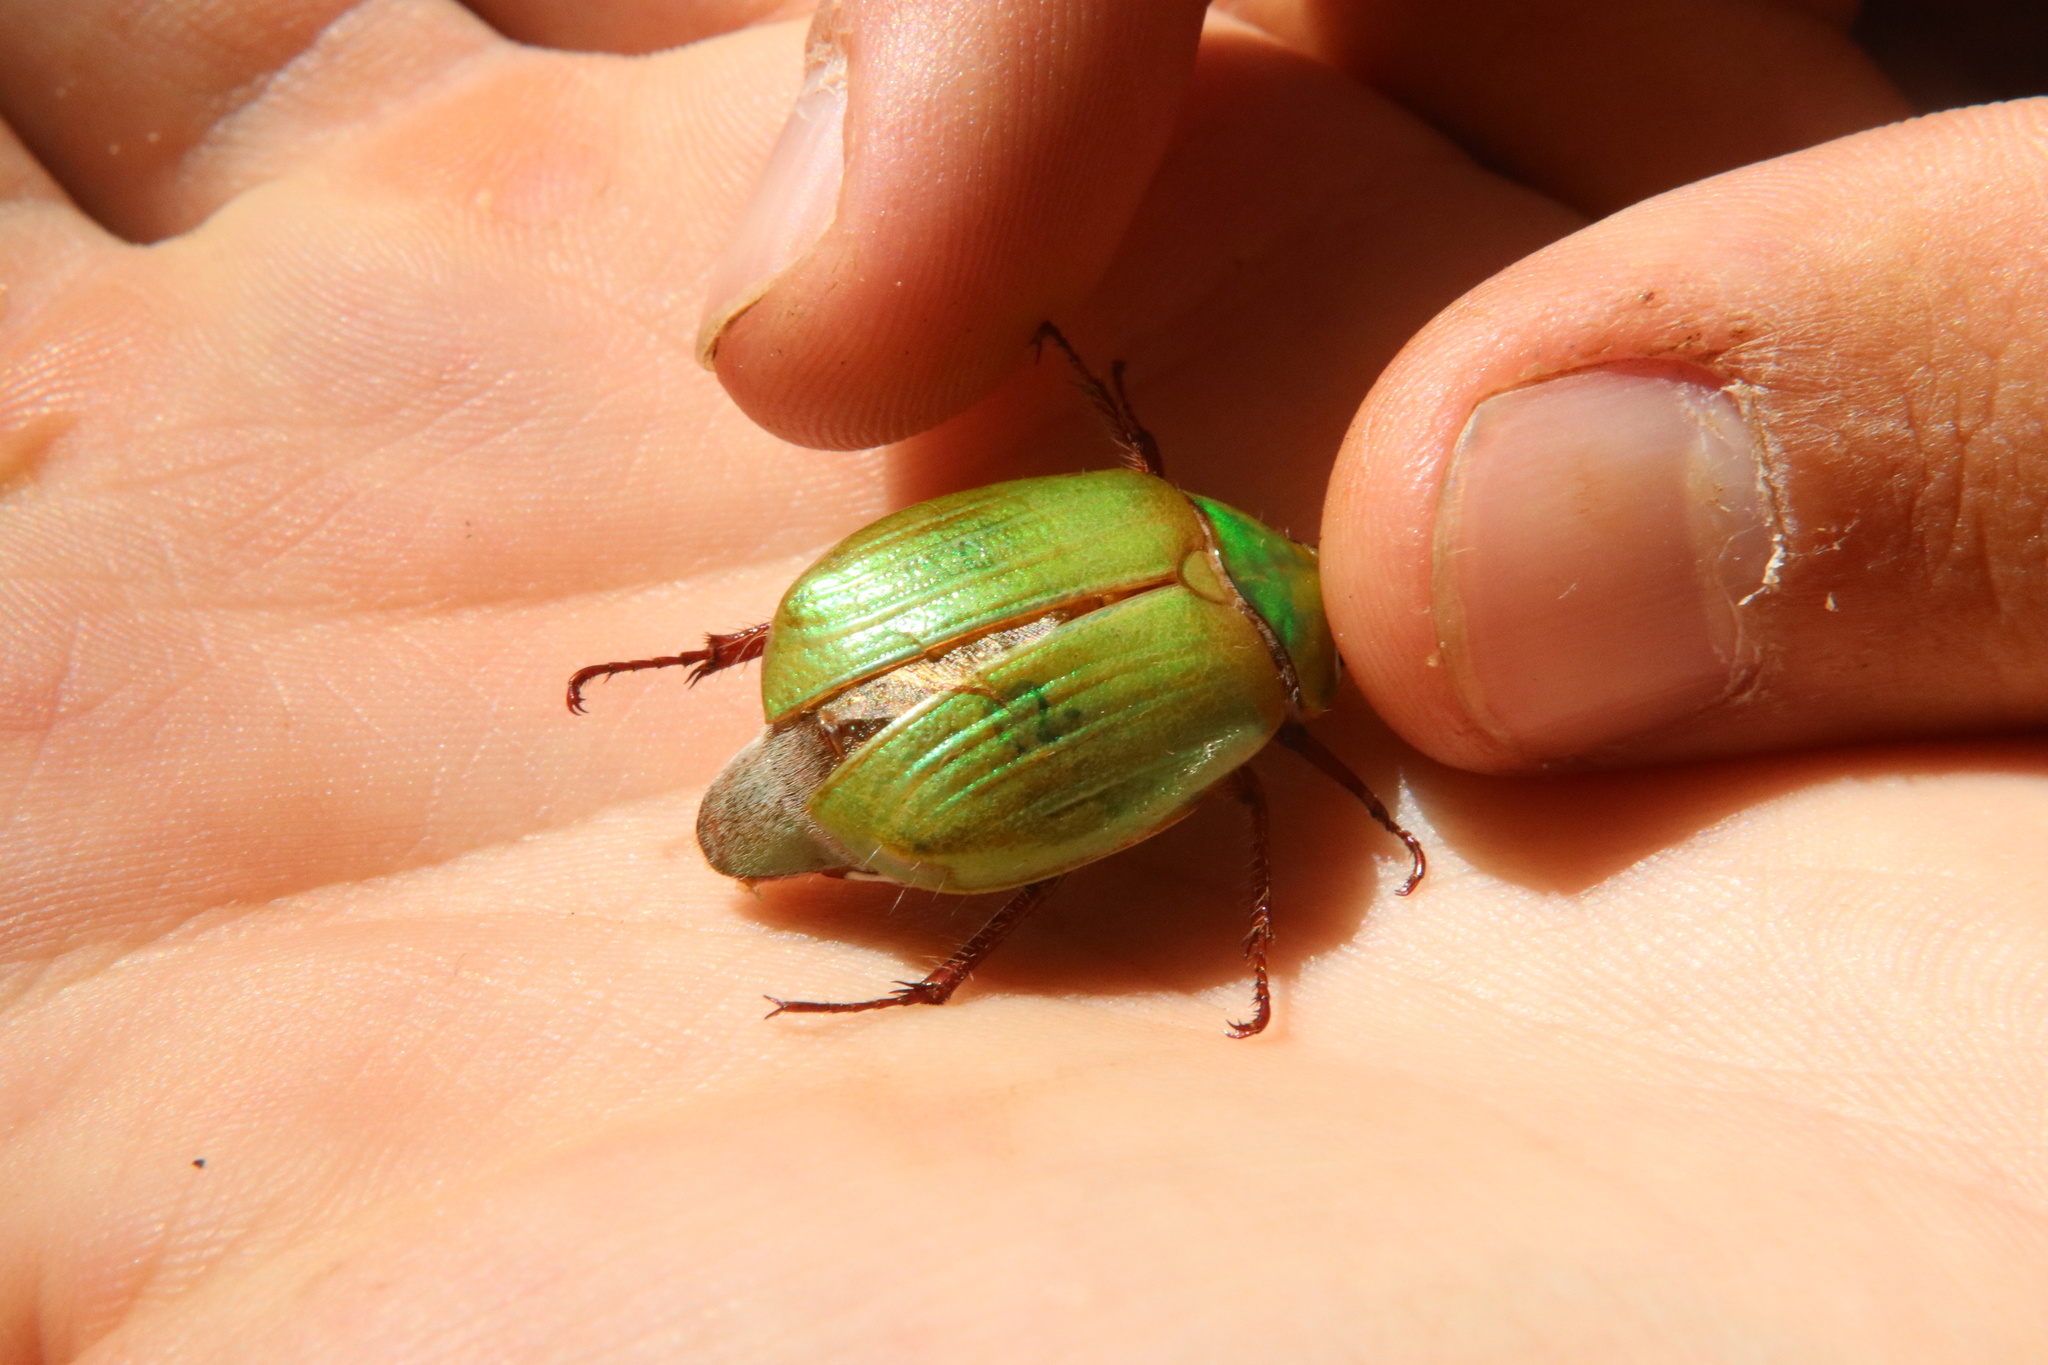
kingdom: Animalia
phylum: Arthropoda
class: Insecta
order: Coleoptera
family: Scarabaeidae
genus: Modialis
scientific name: Modialis prasinella
